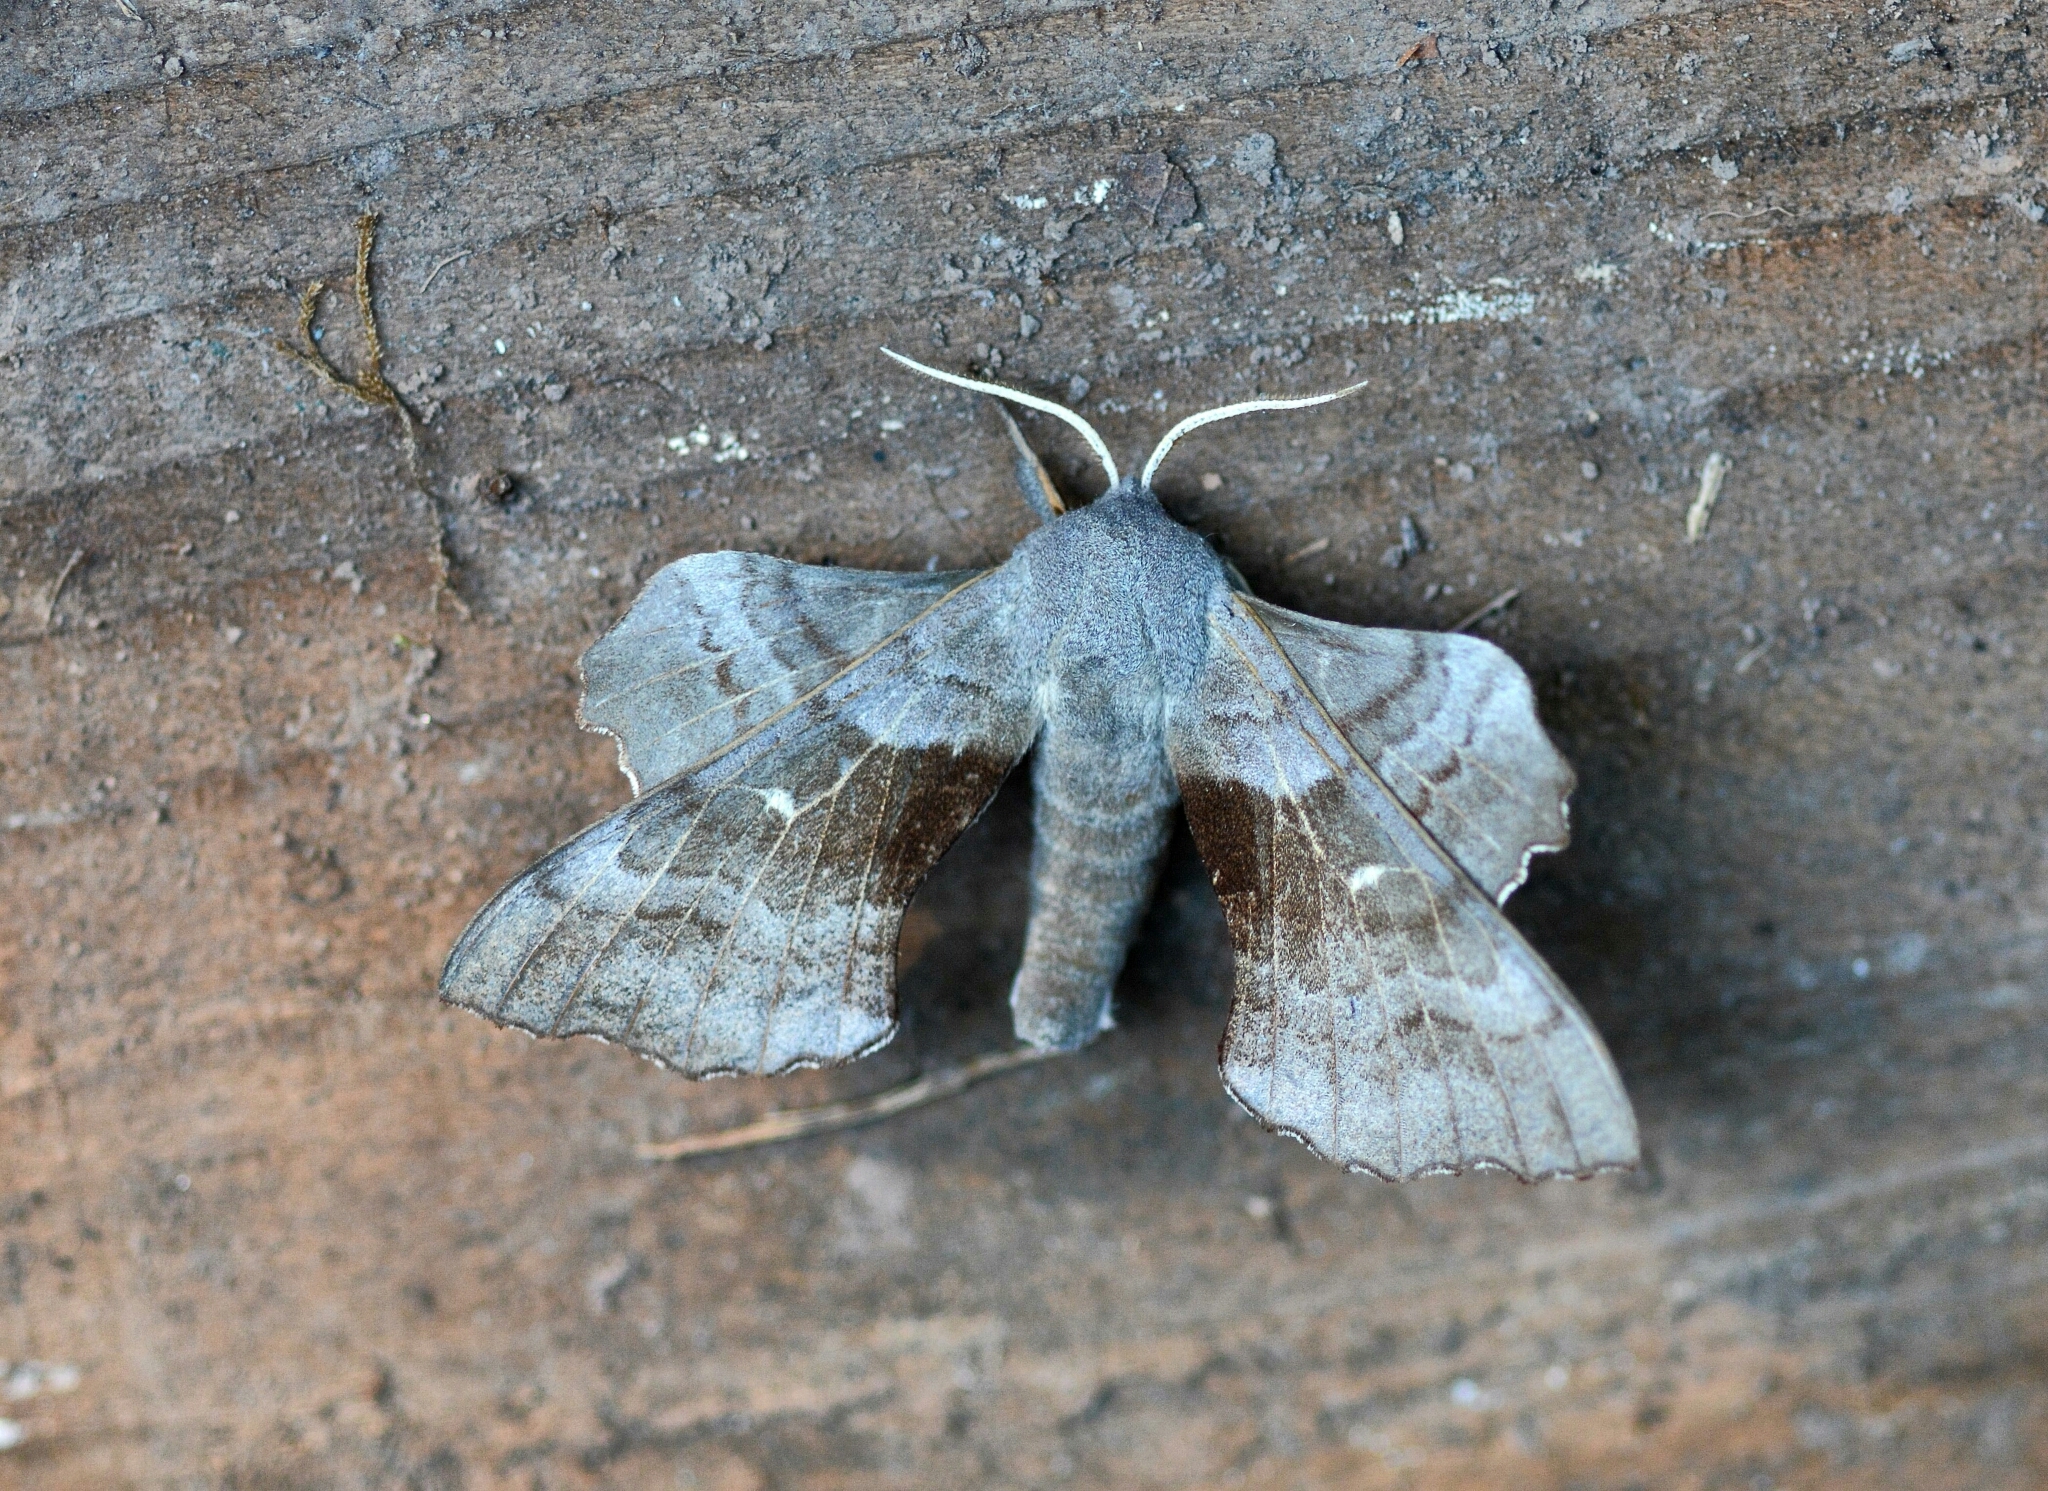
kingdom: Animalia
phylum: Arthropoda
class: Insecta
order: Lepidoptera
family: Sphingidae
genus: Laothoe
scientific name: Laothoe populi
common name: Poplar hawk-moth
